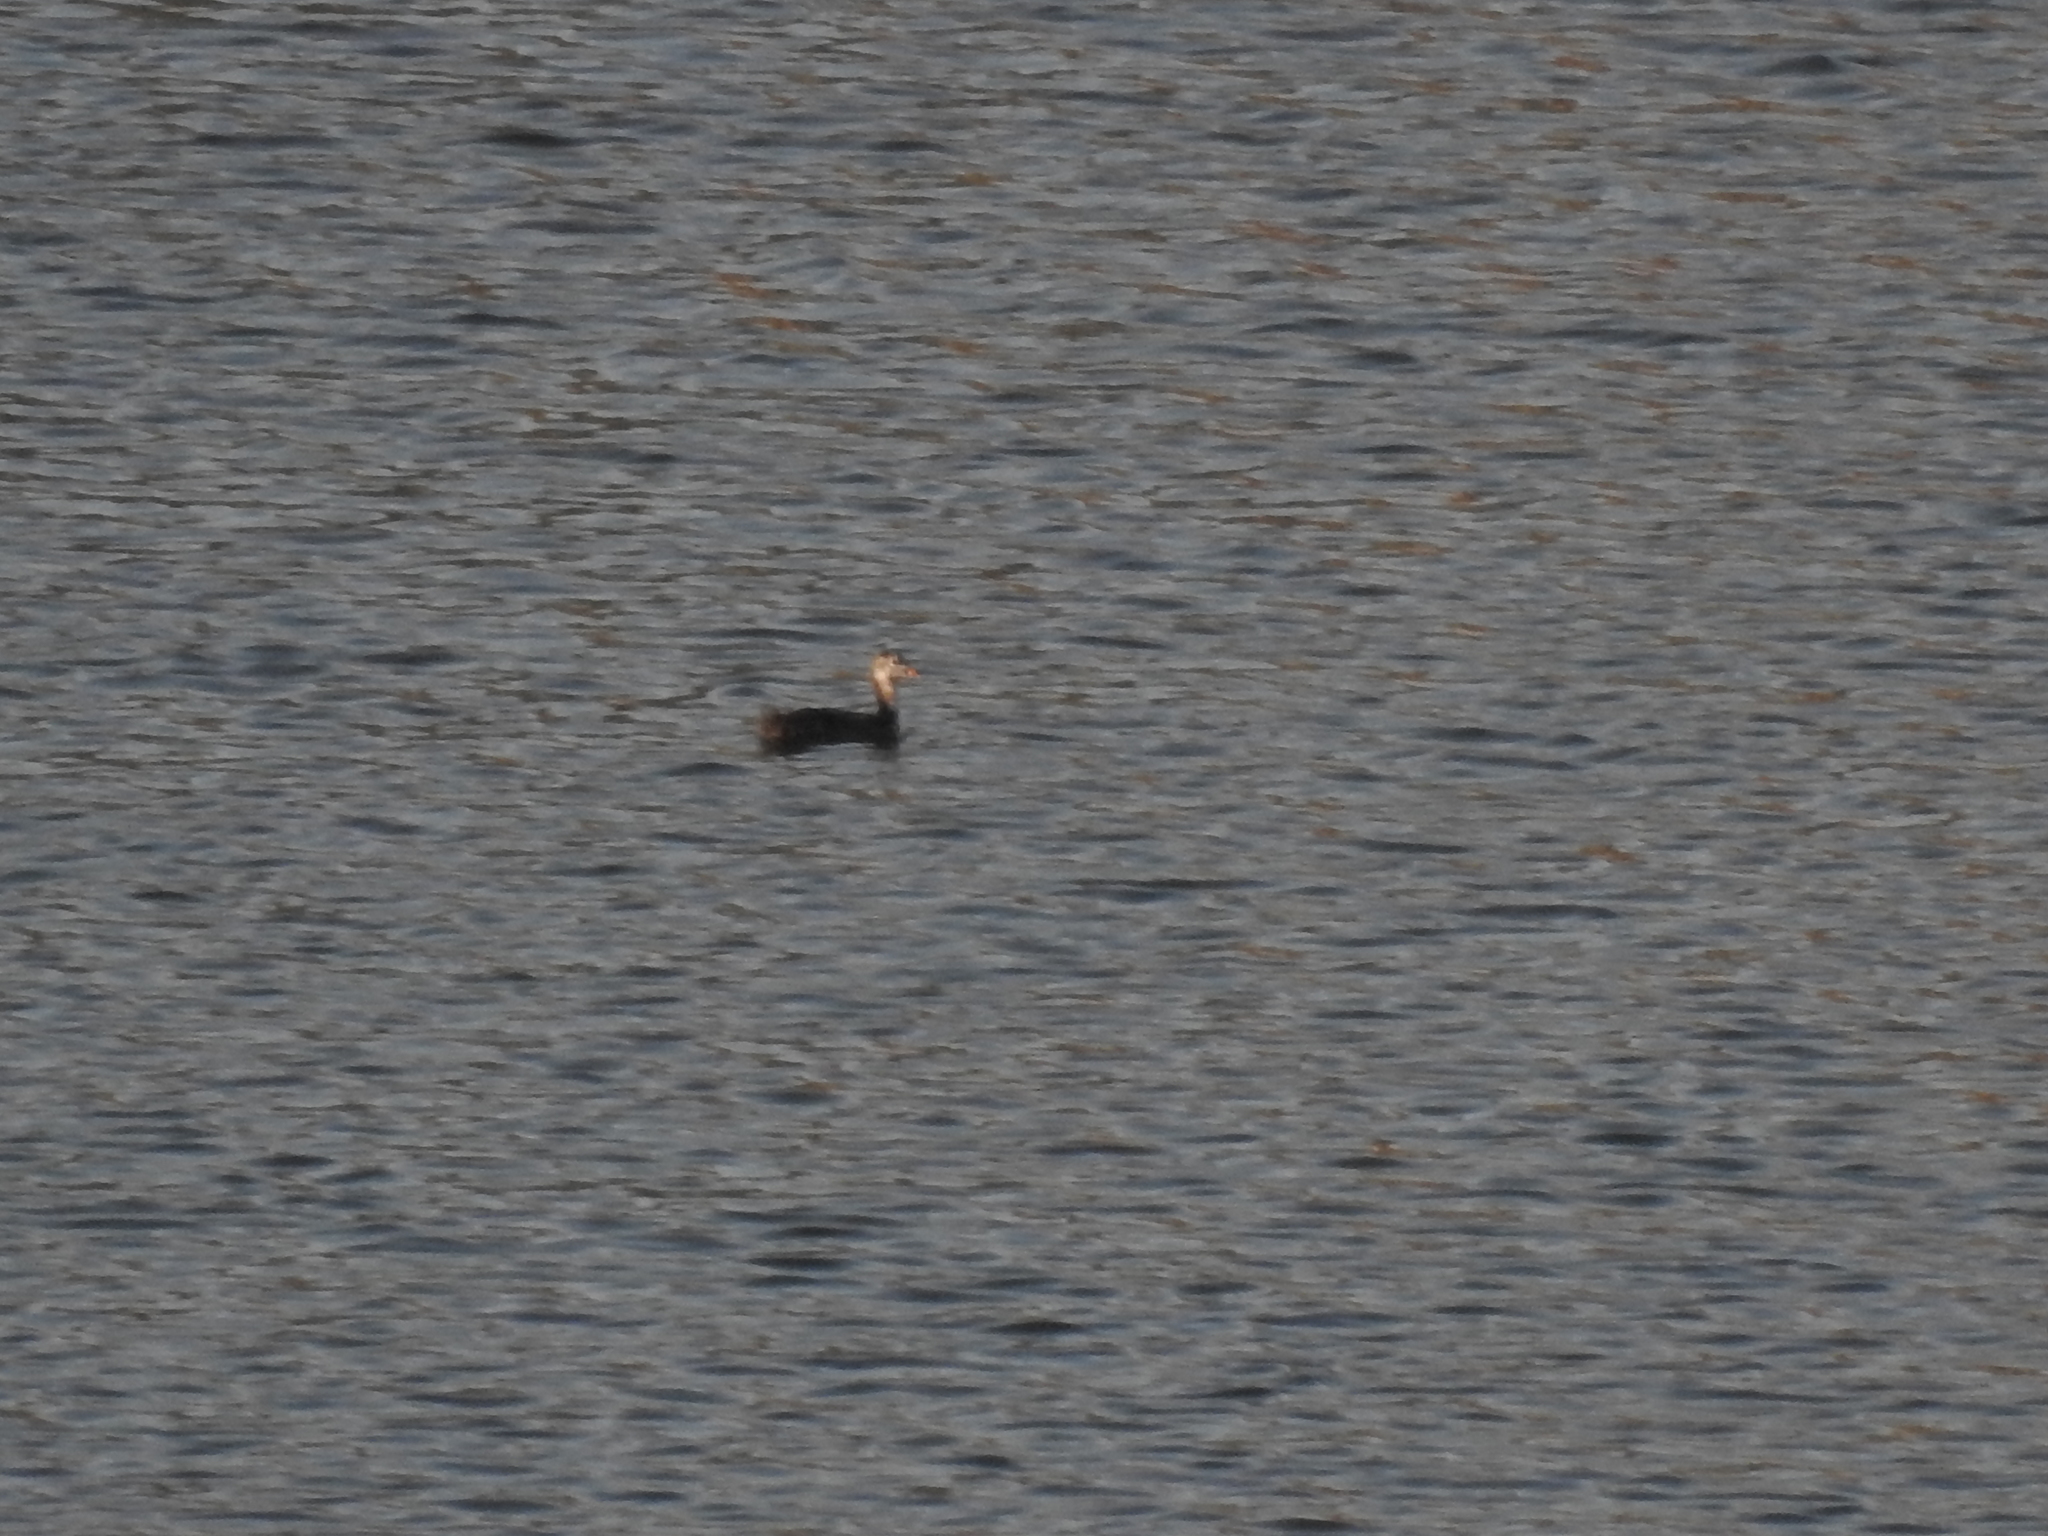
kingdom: Animalia
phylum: Chordata
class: Aves
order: Gruiformes
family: Rallidae
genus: Fulica
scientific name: Fulica atra
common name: Eurasian coot
